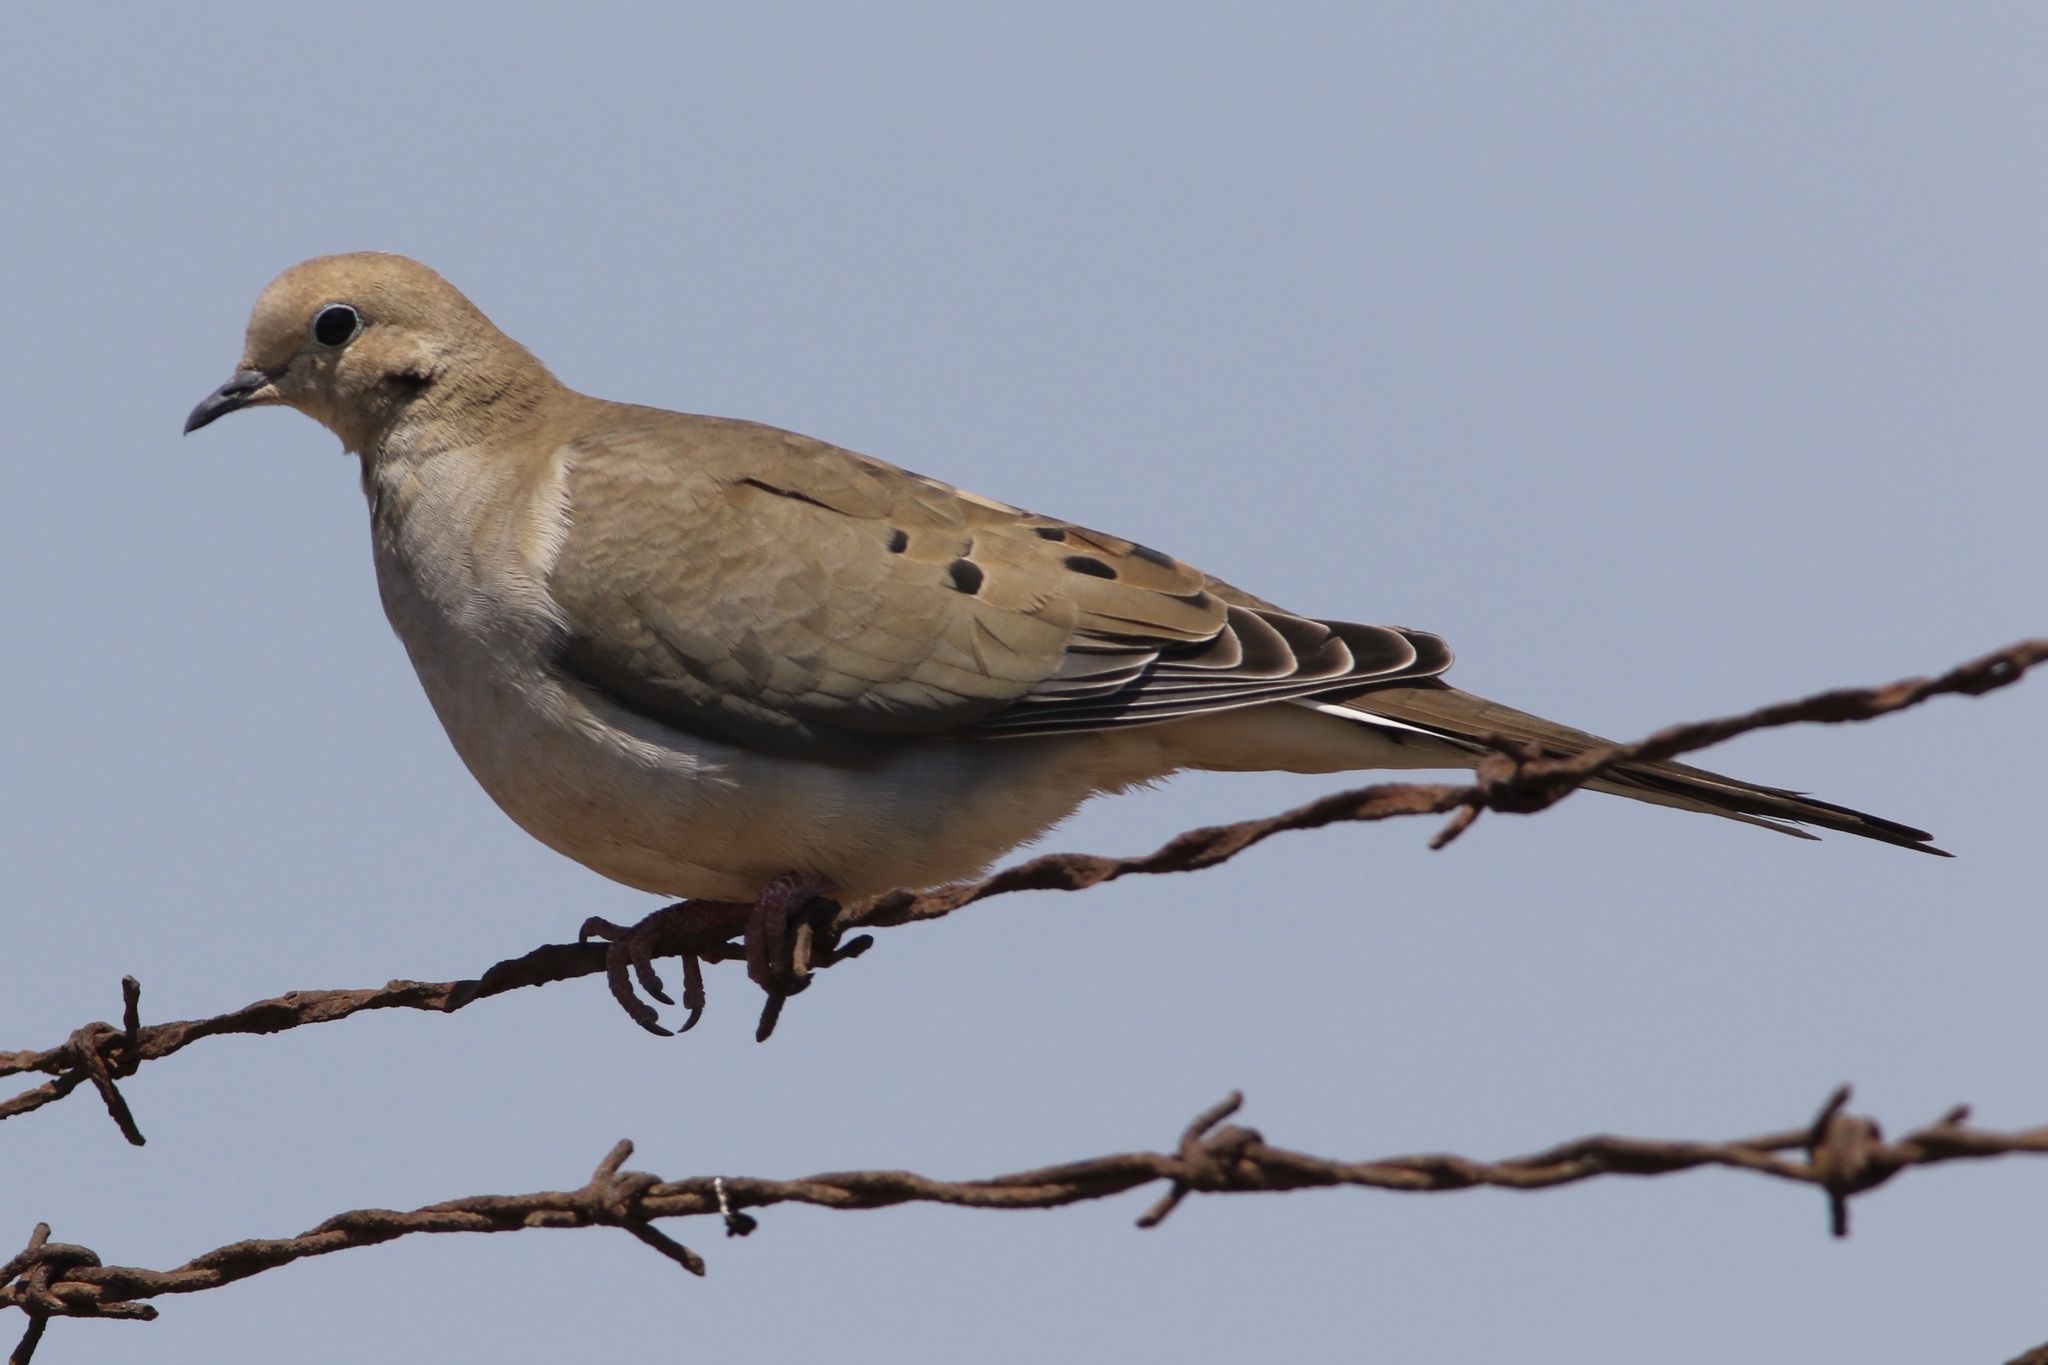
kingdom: Animalia
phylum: Chordata
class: Aves
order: Columbiformes
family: Columbidae
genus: Zenaida
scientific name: Zenaida macroura
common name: Mourning dove
